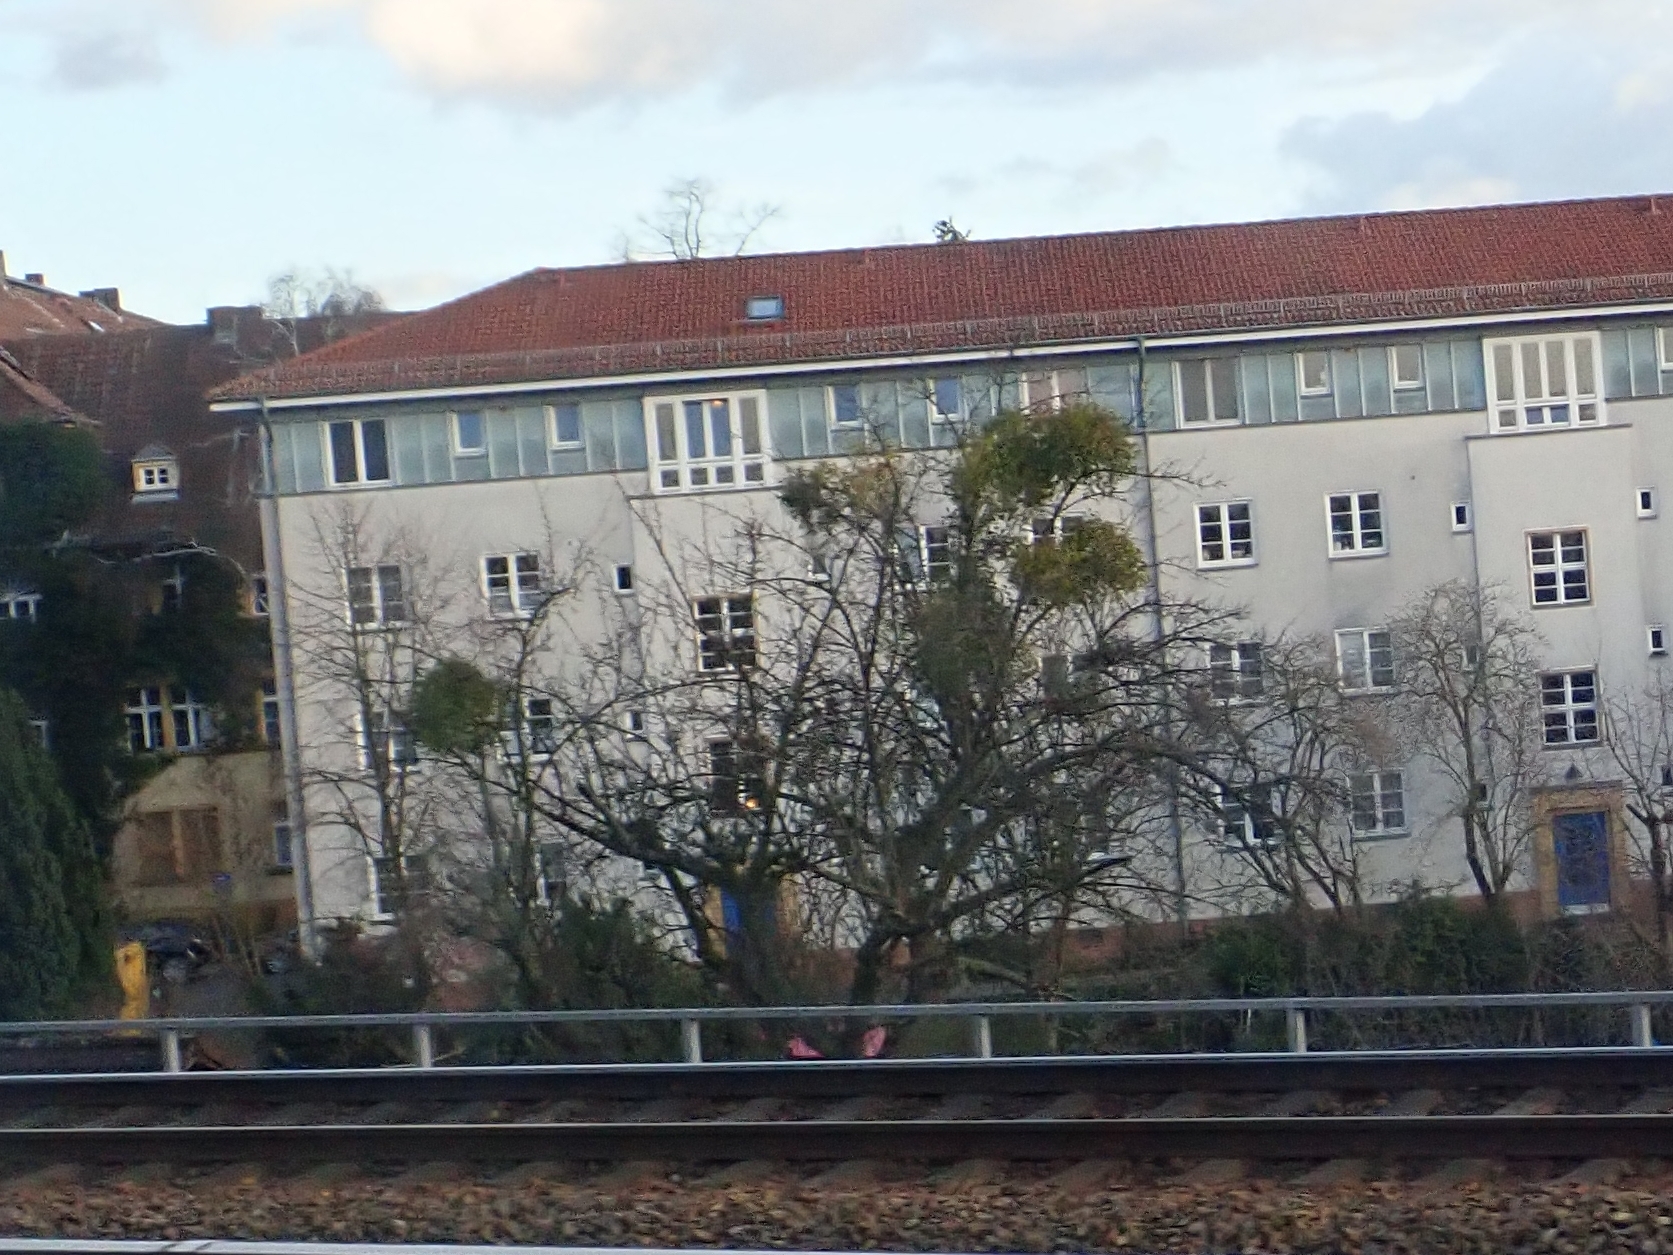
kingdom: Plantae
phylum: Tracheophyta
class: Magnoliopsida
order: Santalales
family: Viscaceae
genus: Viscum
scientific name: Viscum album
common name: Mistletoe
